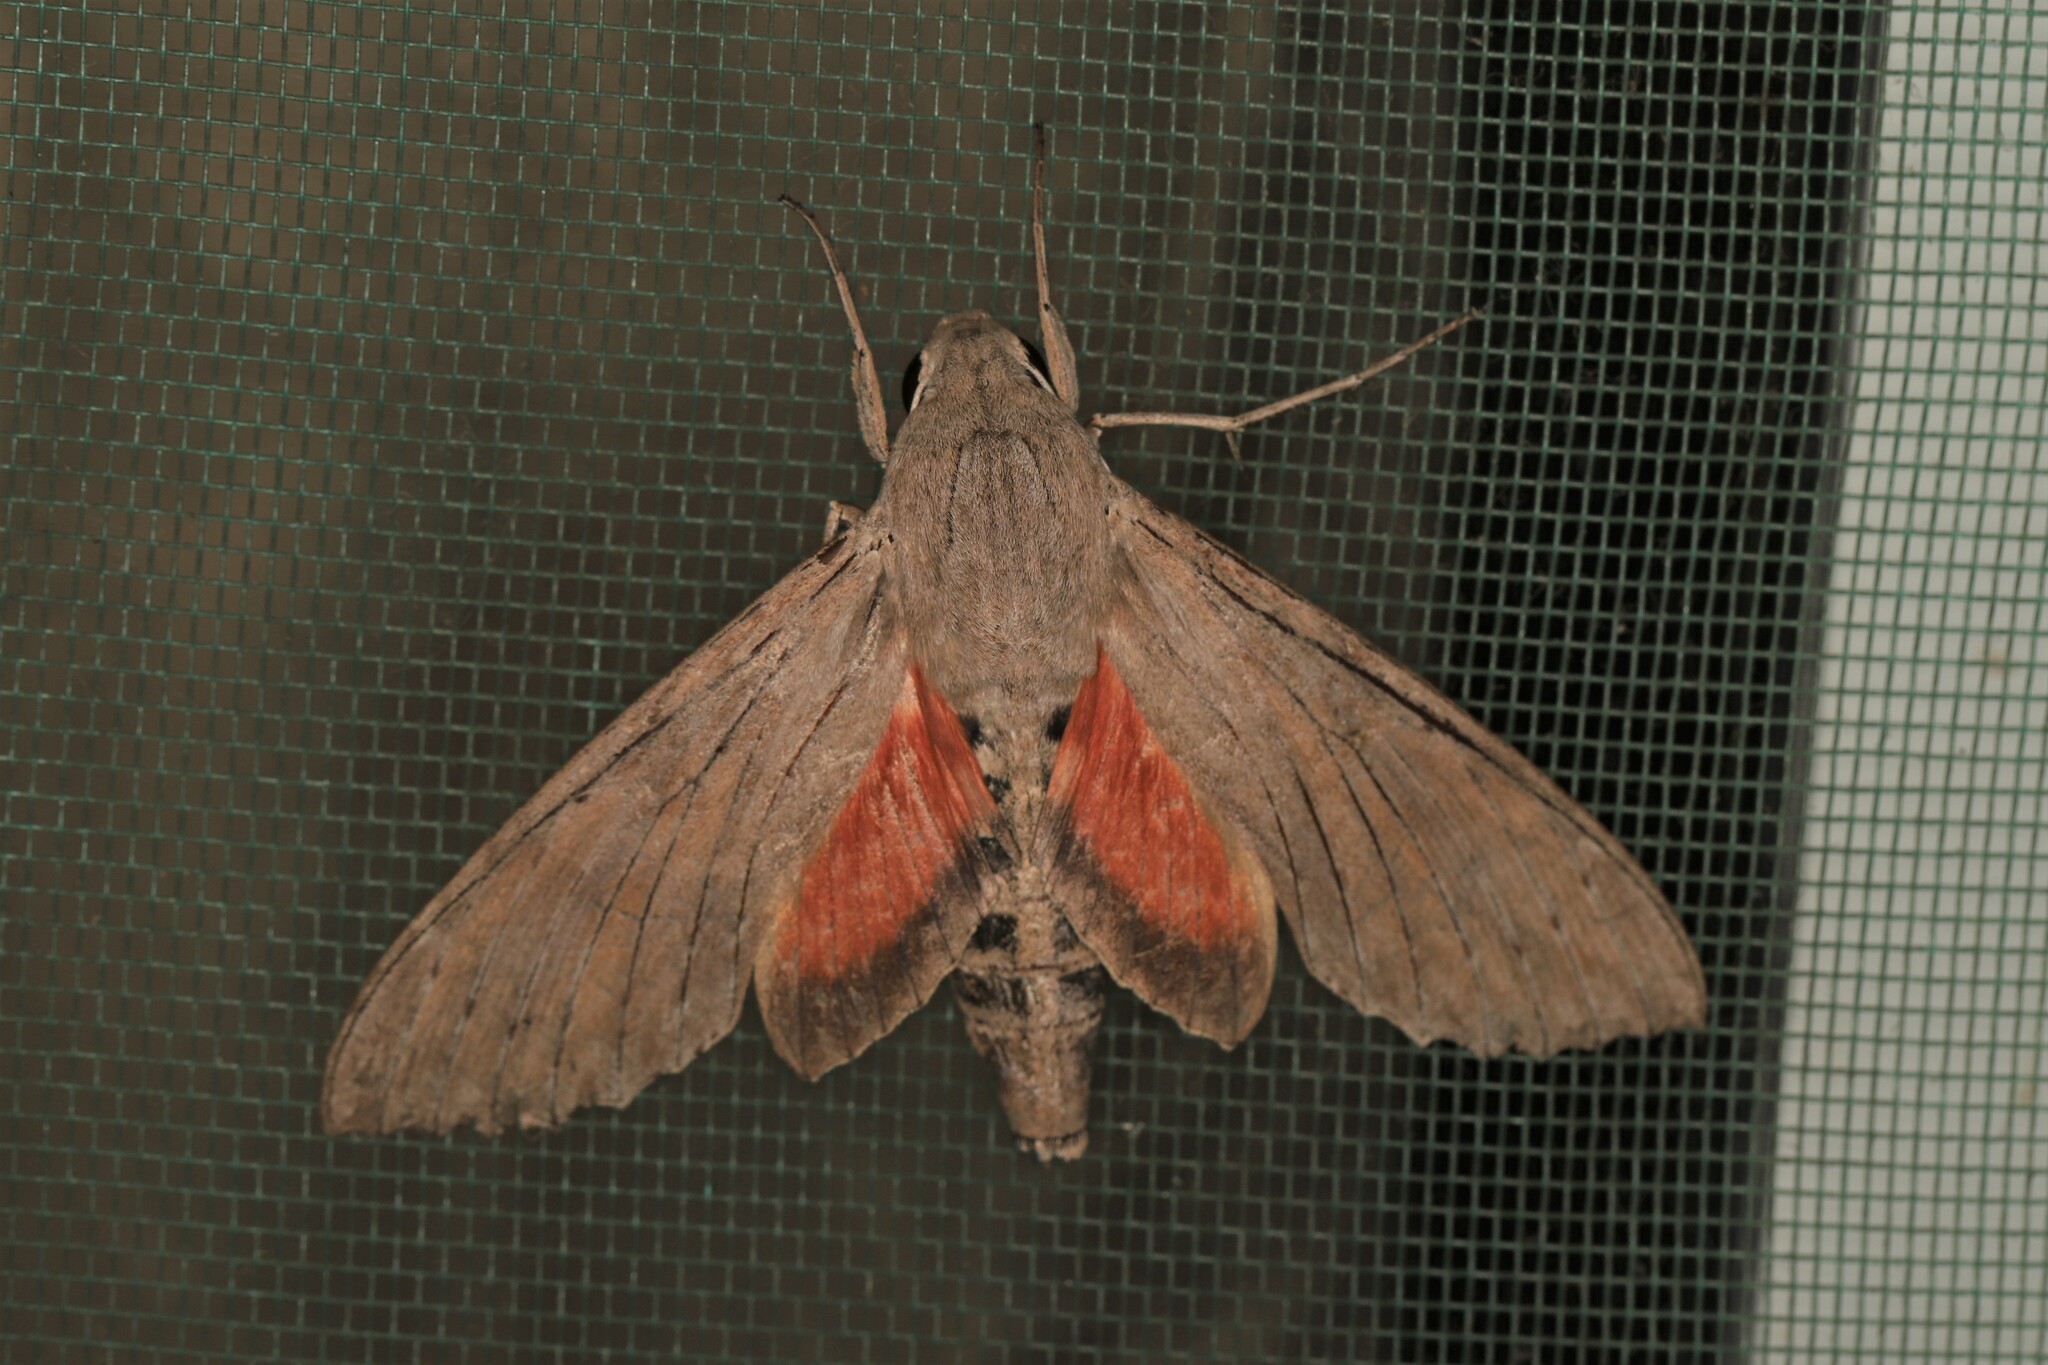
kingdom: Animalia
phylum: Arthropoda
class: Insecta
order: Lepidoptera
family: Sphingidae
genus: Erinnyis
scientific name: Erinnyis ello
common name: Ello sphinx
